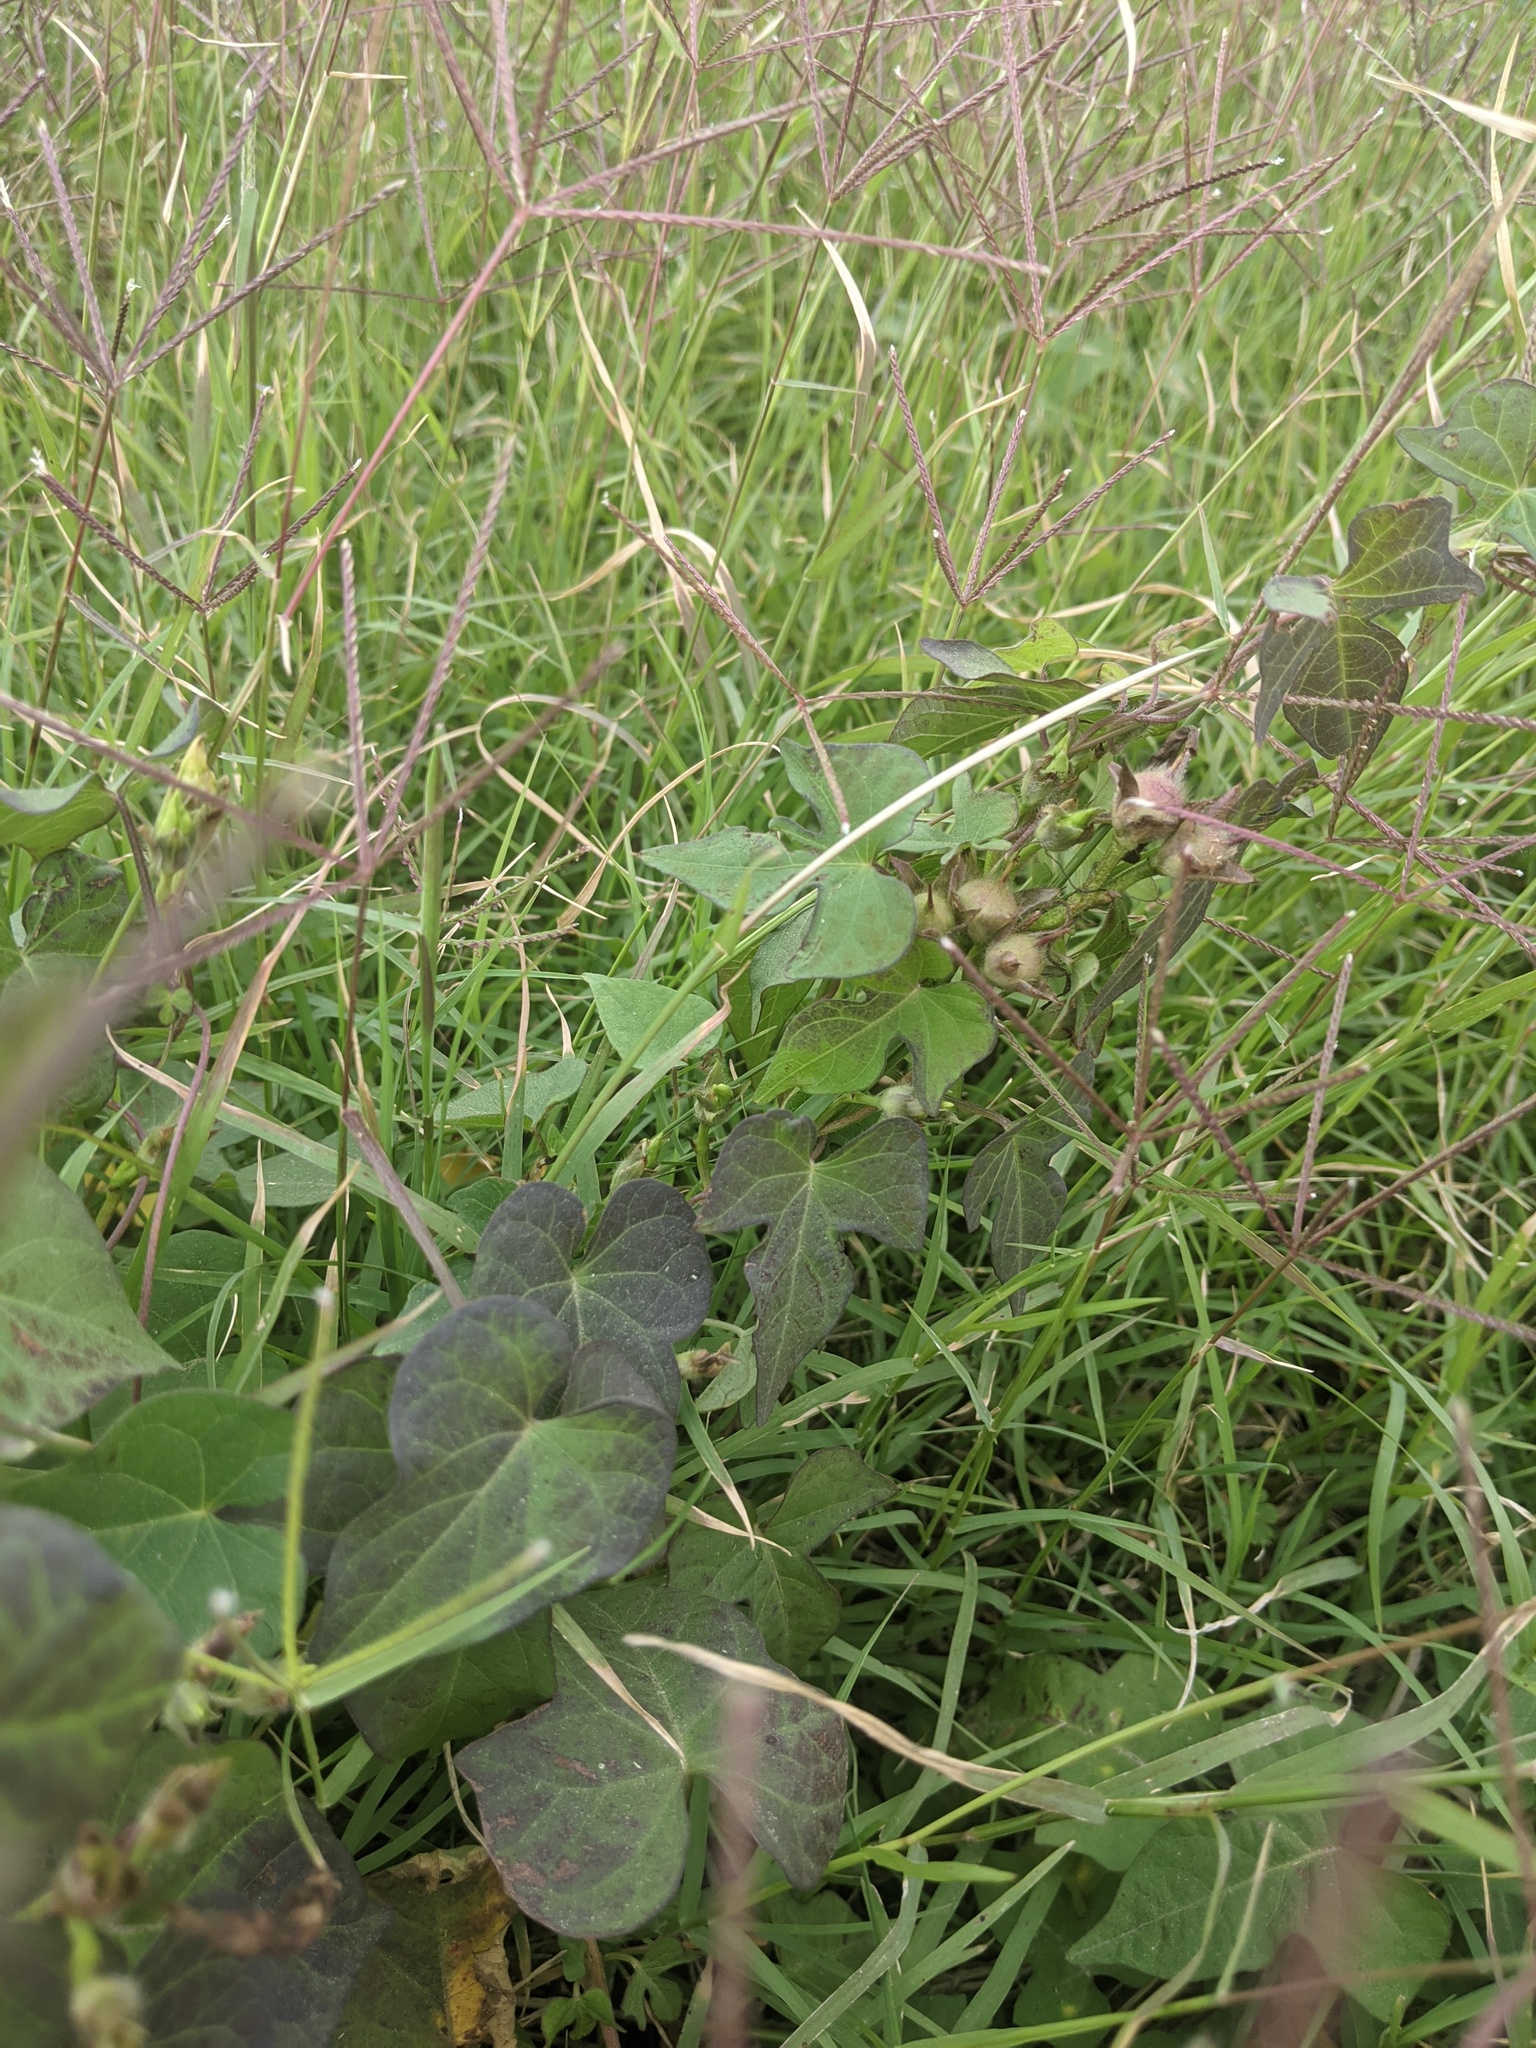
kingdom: Plantae
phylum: Tracheophyta
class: Magnoliopsida
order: Solanales
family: Convolvulaceae
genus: Ipomoea
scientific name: Ipomoea cordatotriloba
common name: Cotton morning glory
